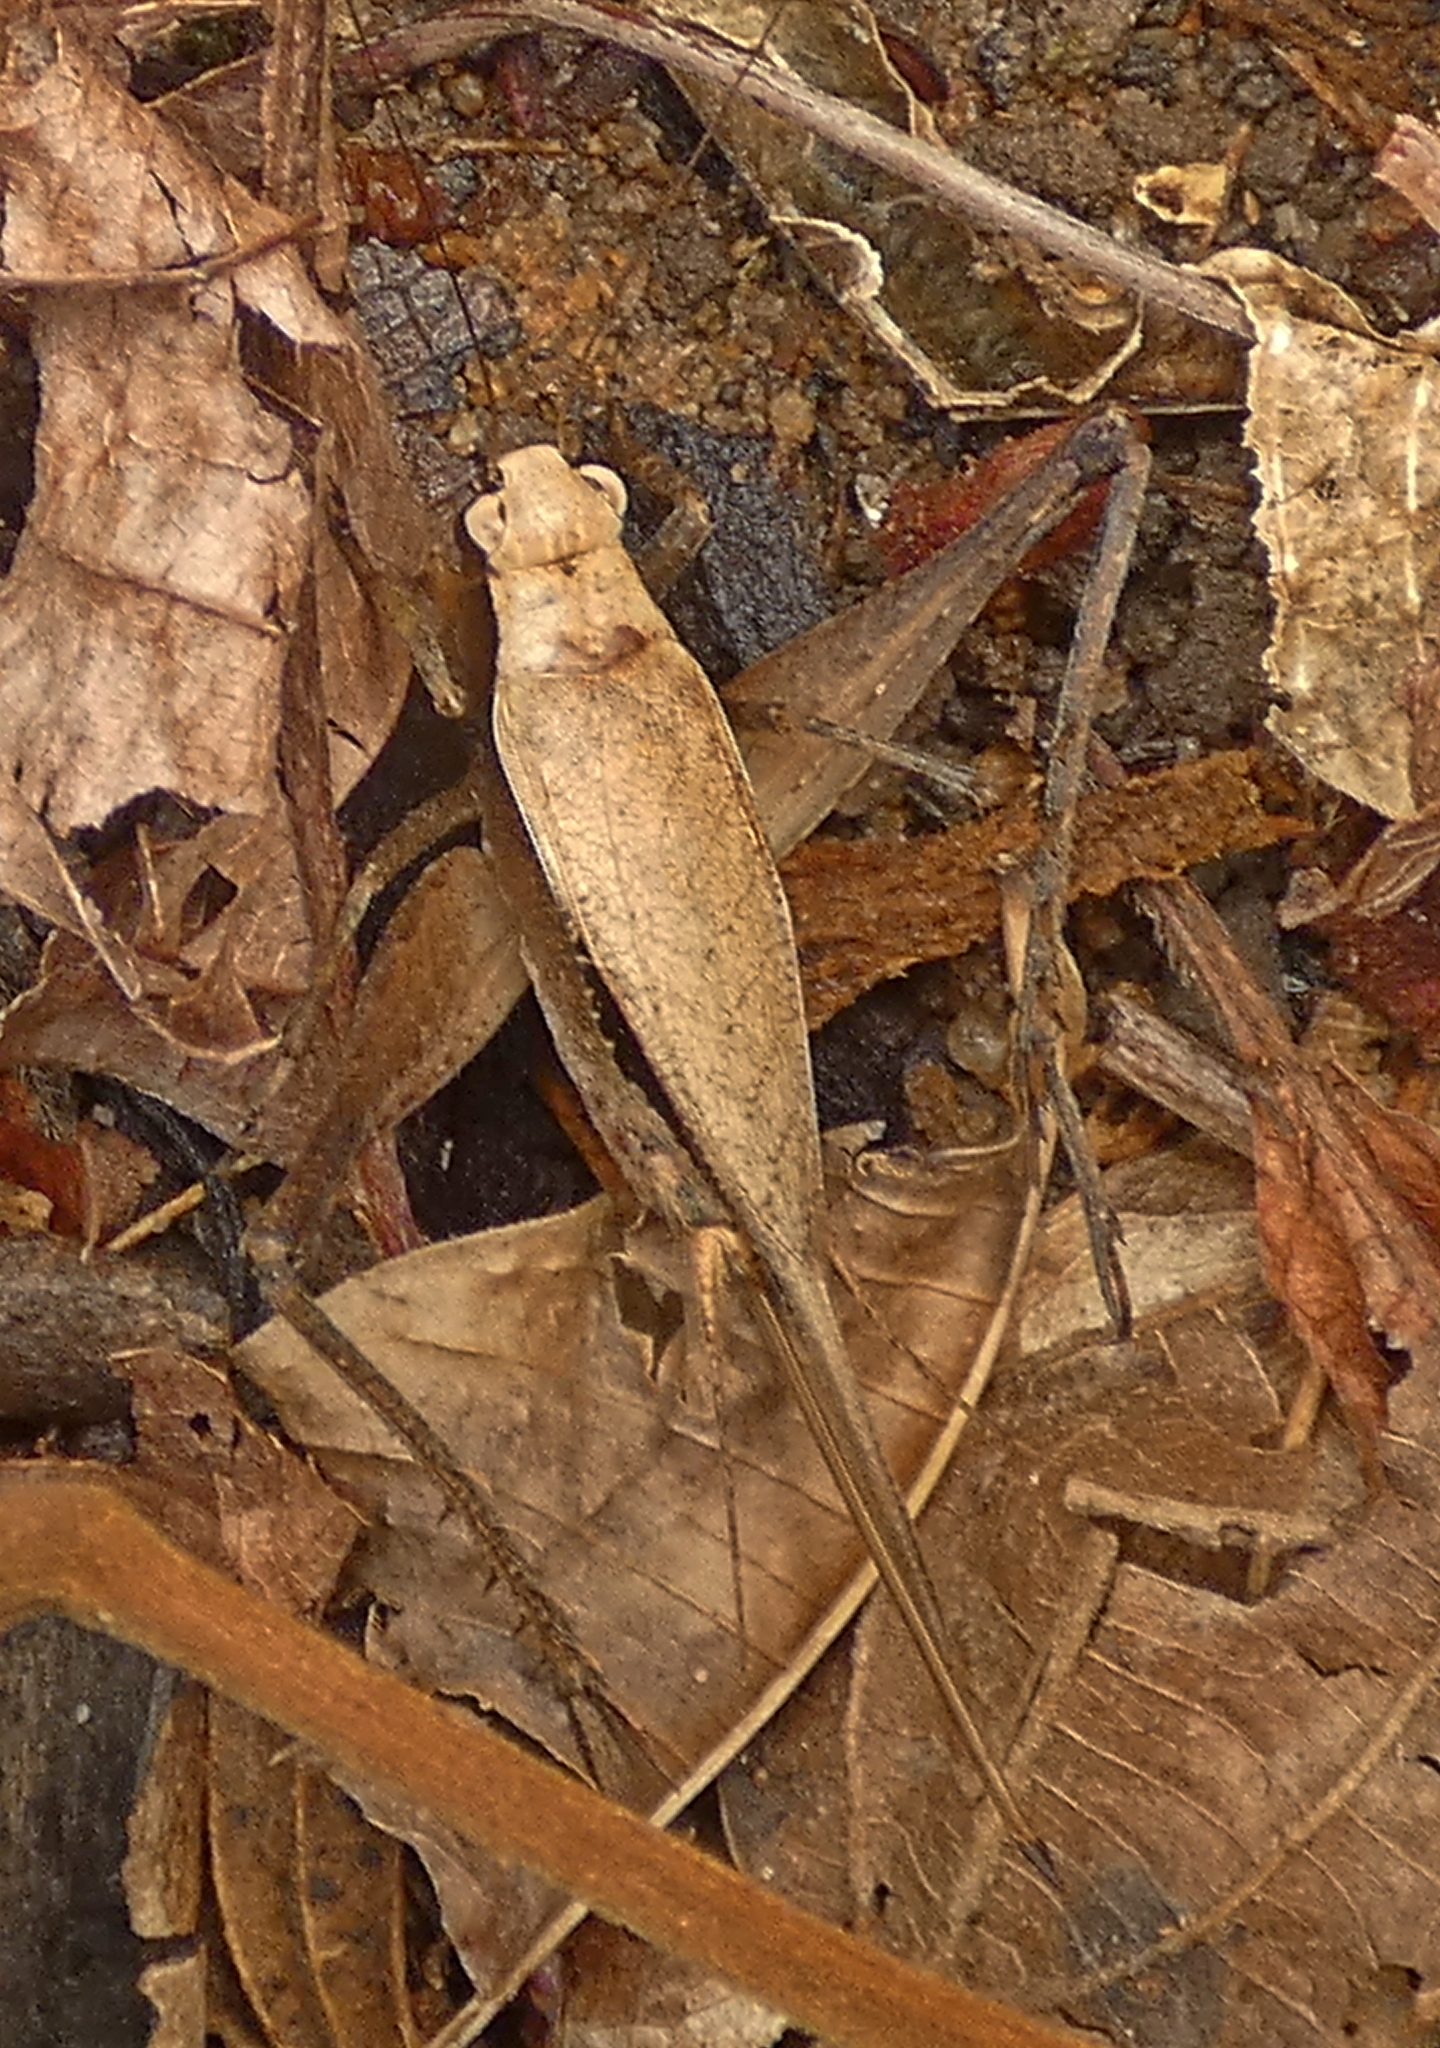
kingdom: Animalia
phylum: Arthropoda
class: Insecta
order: Orthoptera
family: Gryllidae
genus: Eneoptera
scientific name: Eneoptera surinamensis
